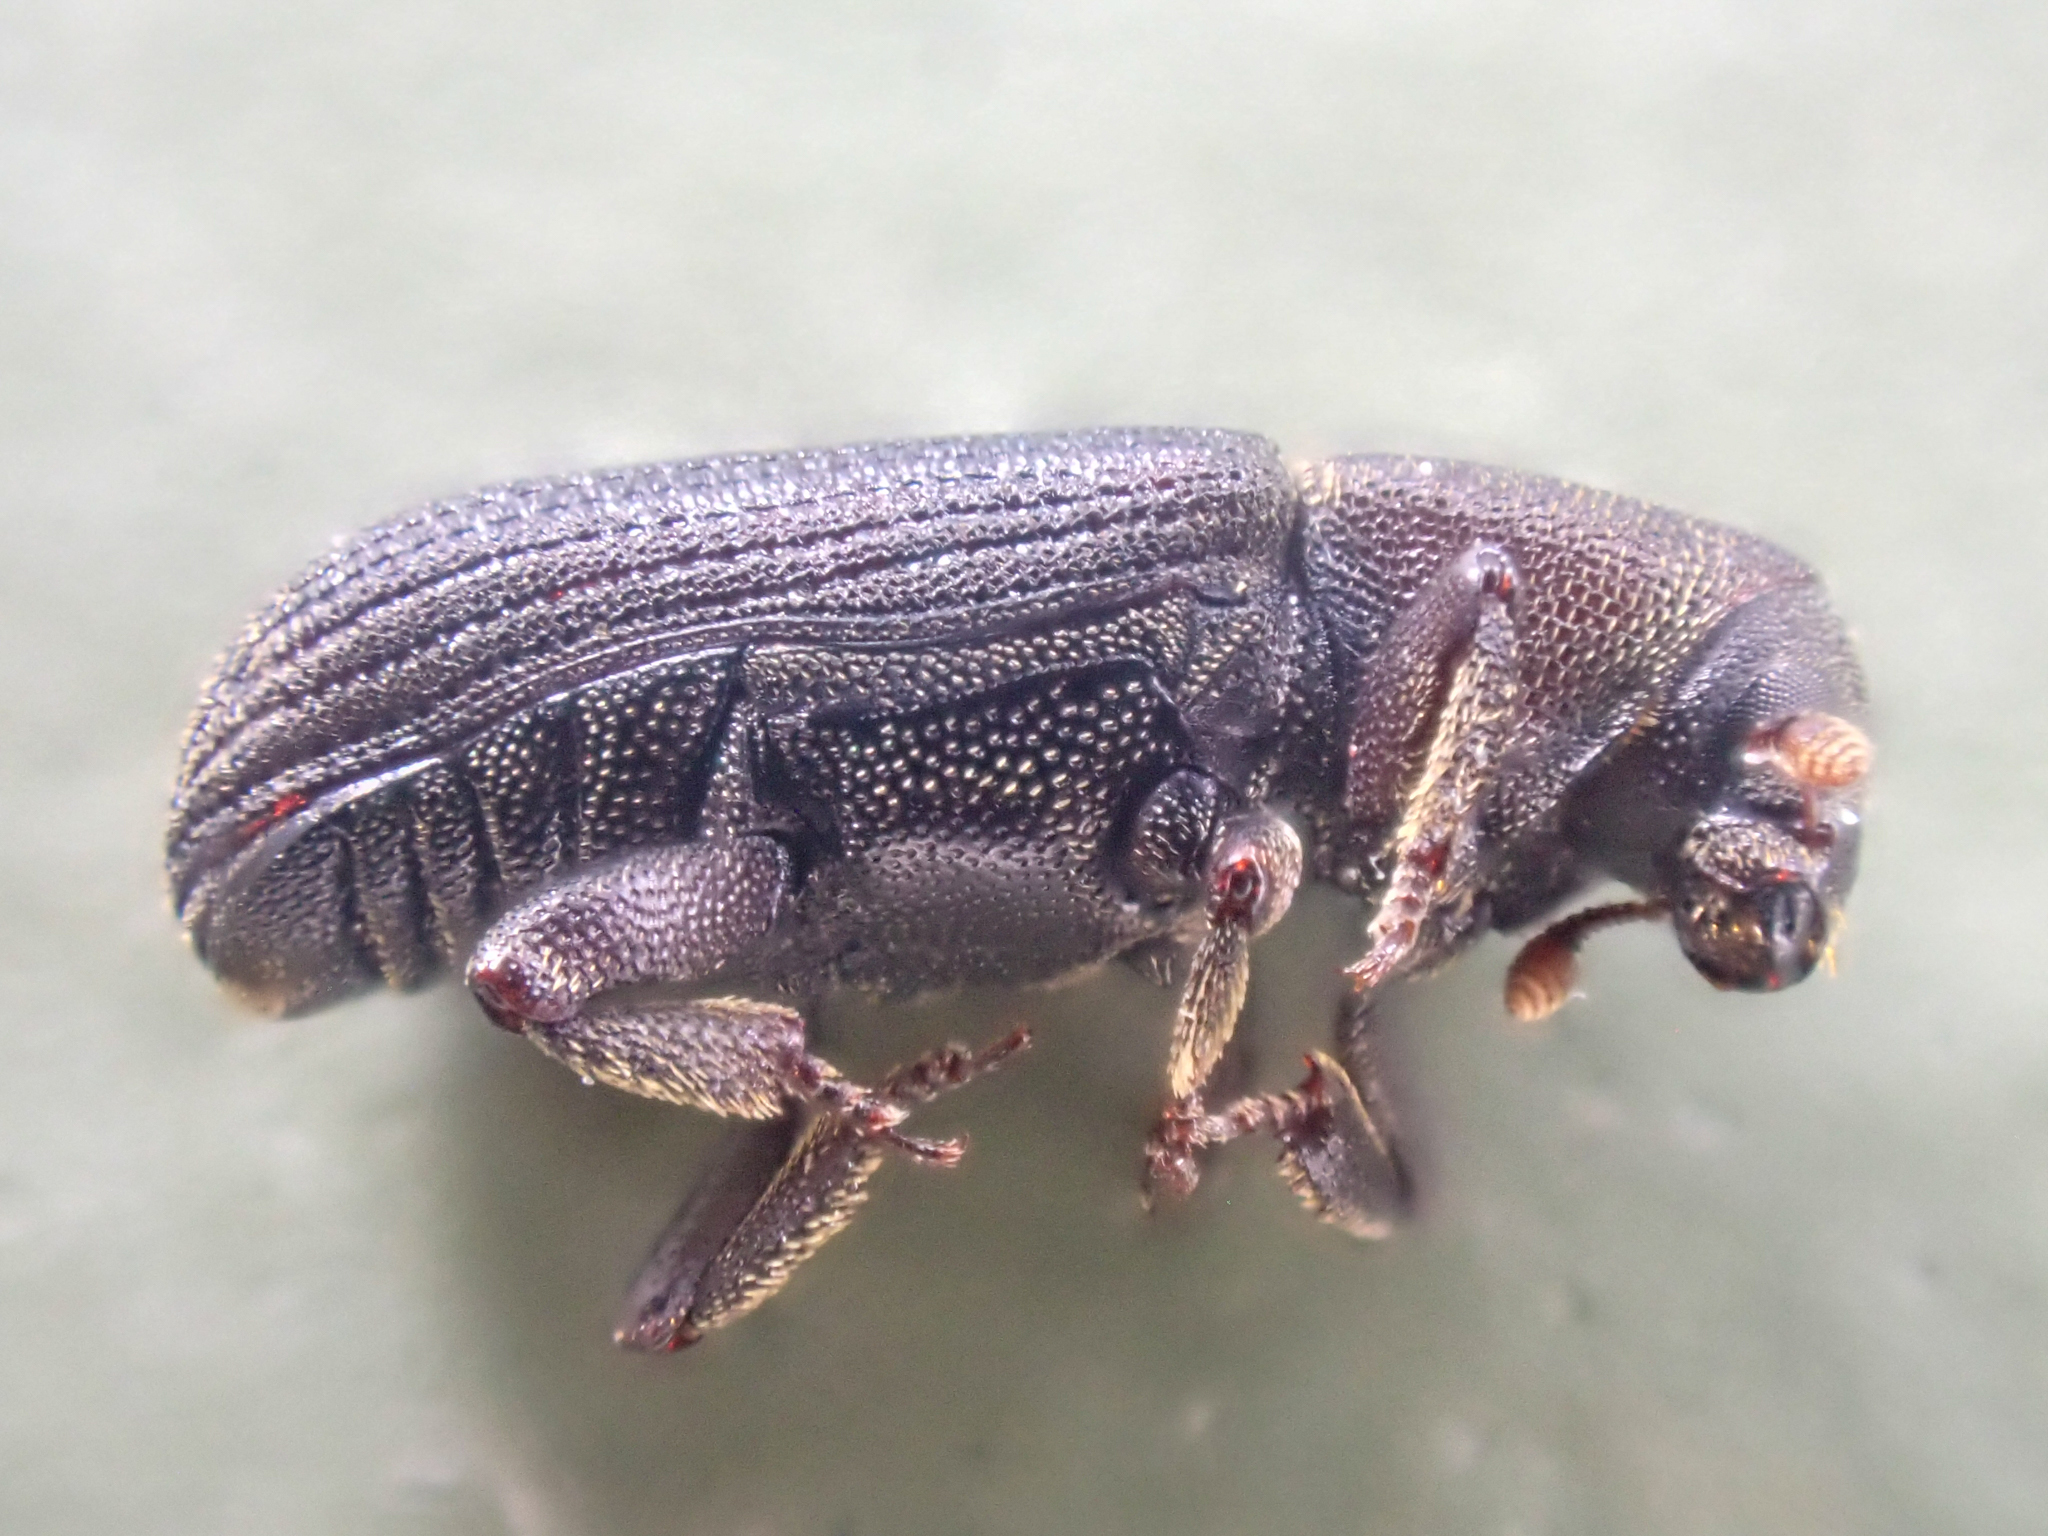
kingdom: Animalia
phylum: Arthropoda
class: Insecta
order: Coleoptera
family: Curculionidae
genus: Hylastes
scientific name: Hylastes gracilis
